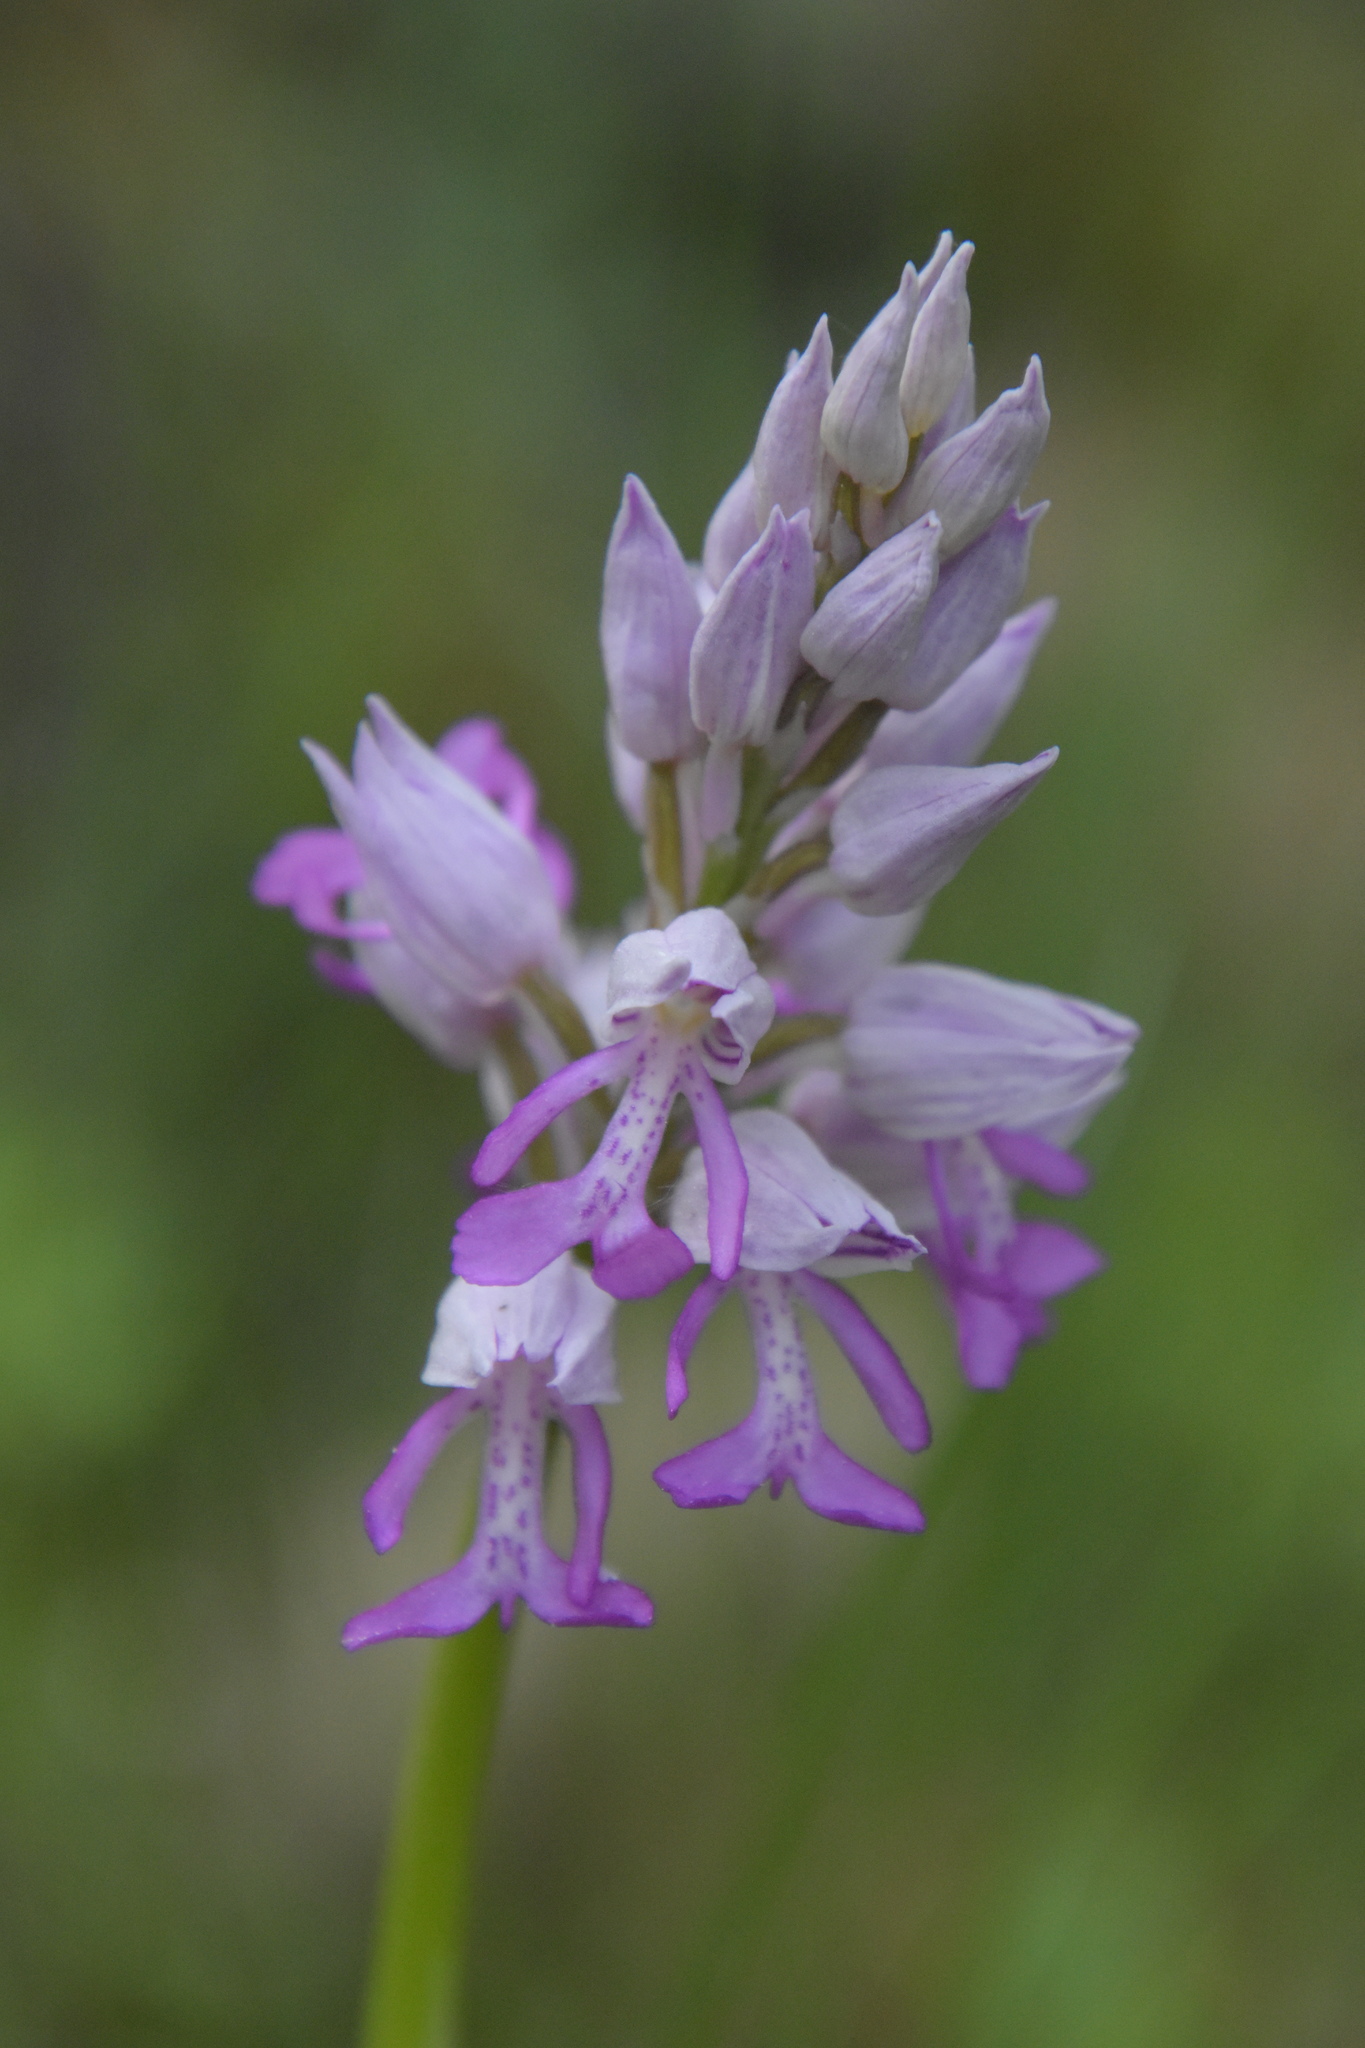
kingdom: Plantae
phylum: Tracheophyta
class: Liliopsida
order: Asparagales
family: Orchidaceae
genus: Orchis
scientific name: Orchis militaris
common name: Military orchid
